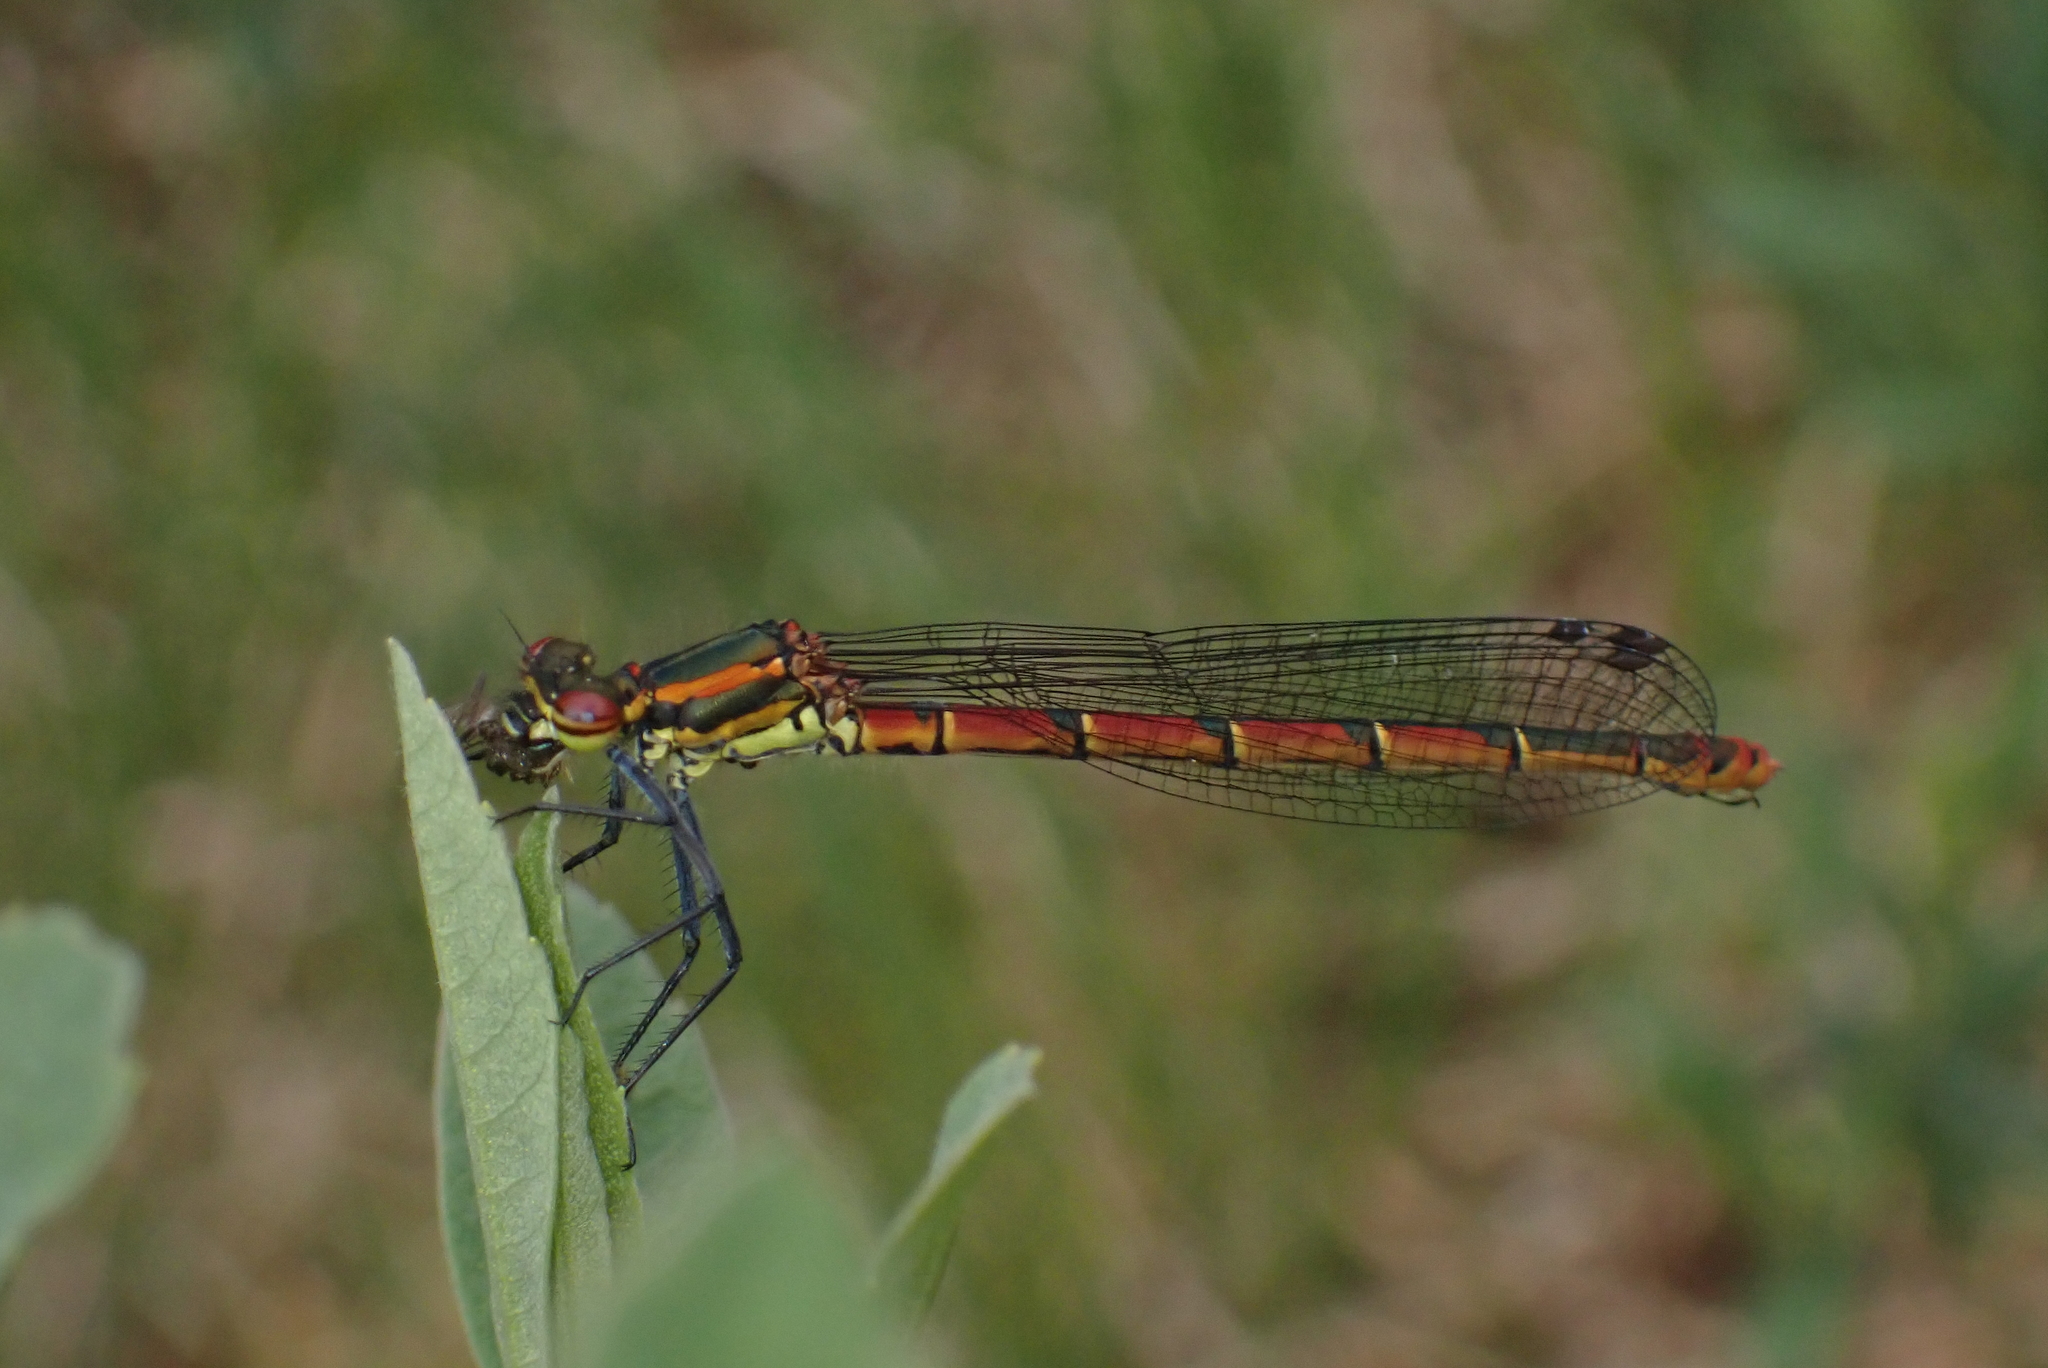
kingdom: Animalia
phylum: Arthropoda
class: Insecta
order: Odonata
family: Coenagrionidae
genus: Pyrrhosoma
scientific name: Pyrrhosoma nymphula
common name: Large red damsel
